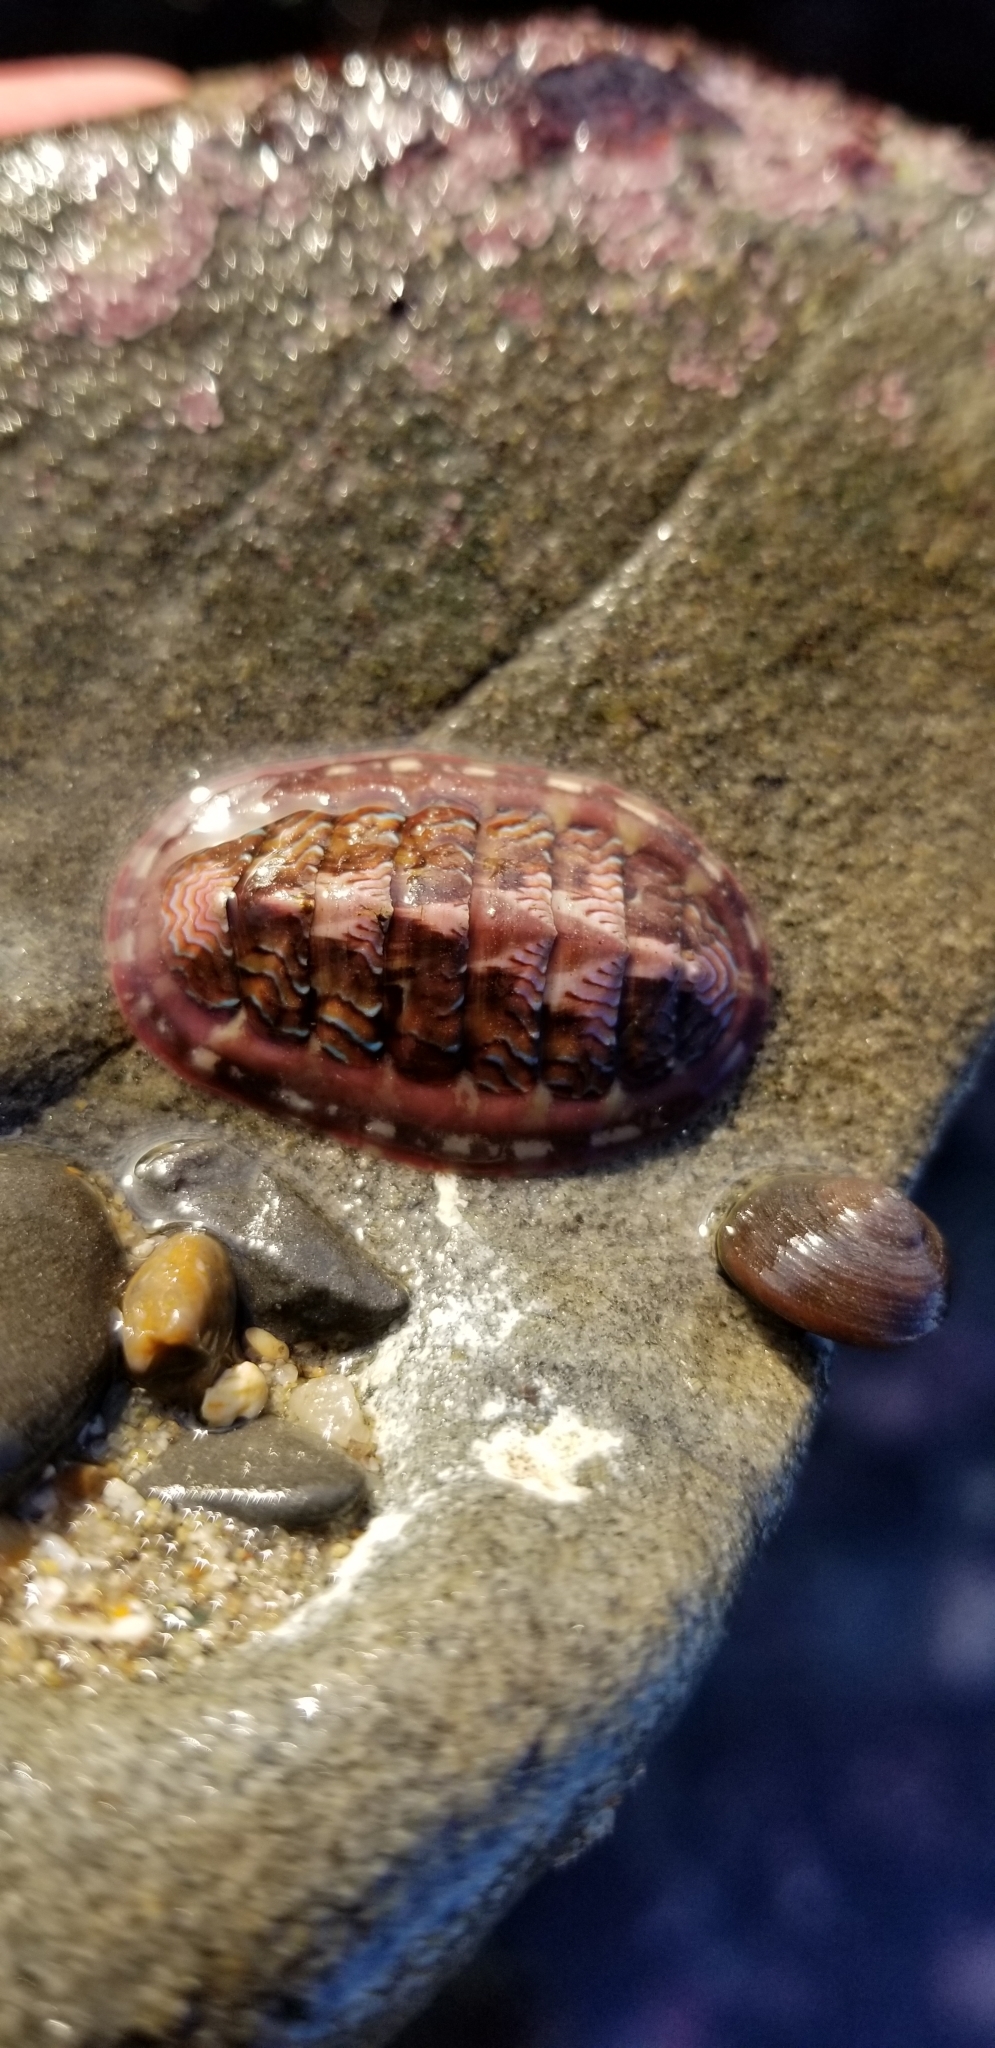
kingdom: Animalia
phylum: Mollusca
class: Polyplacophora
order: Chitonida
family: Tonicellidae
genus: Tonicella
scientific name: Tonicella lokii
